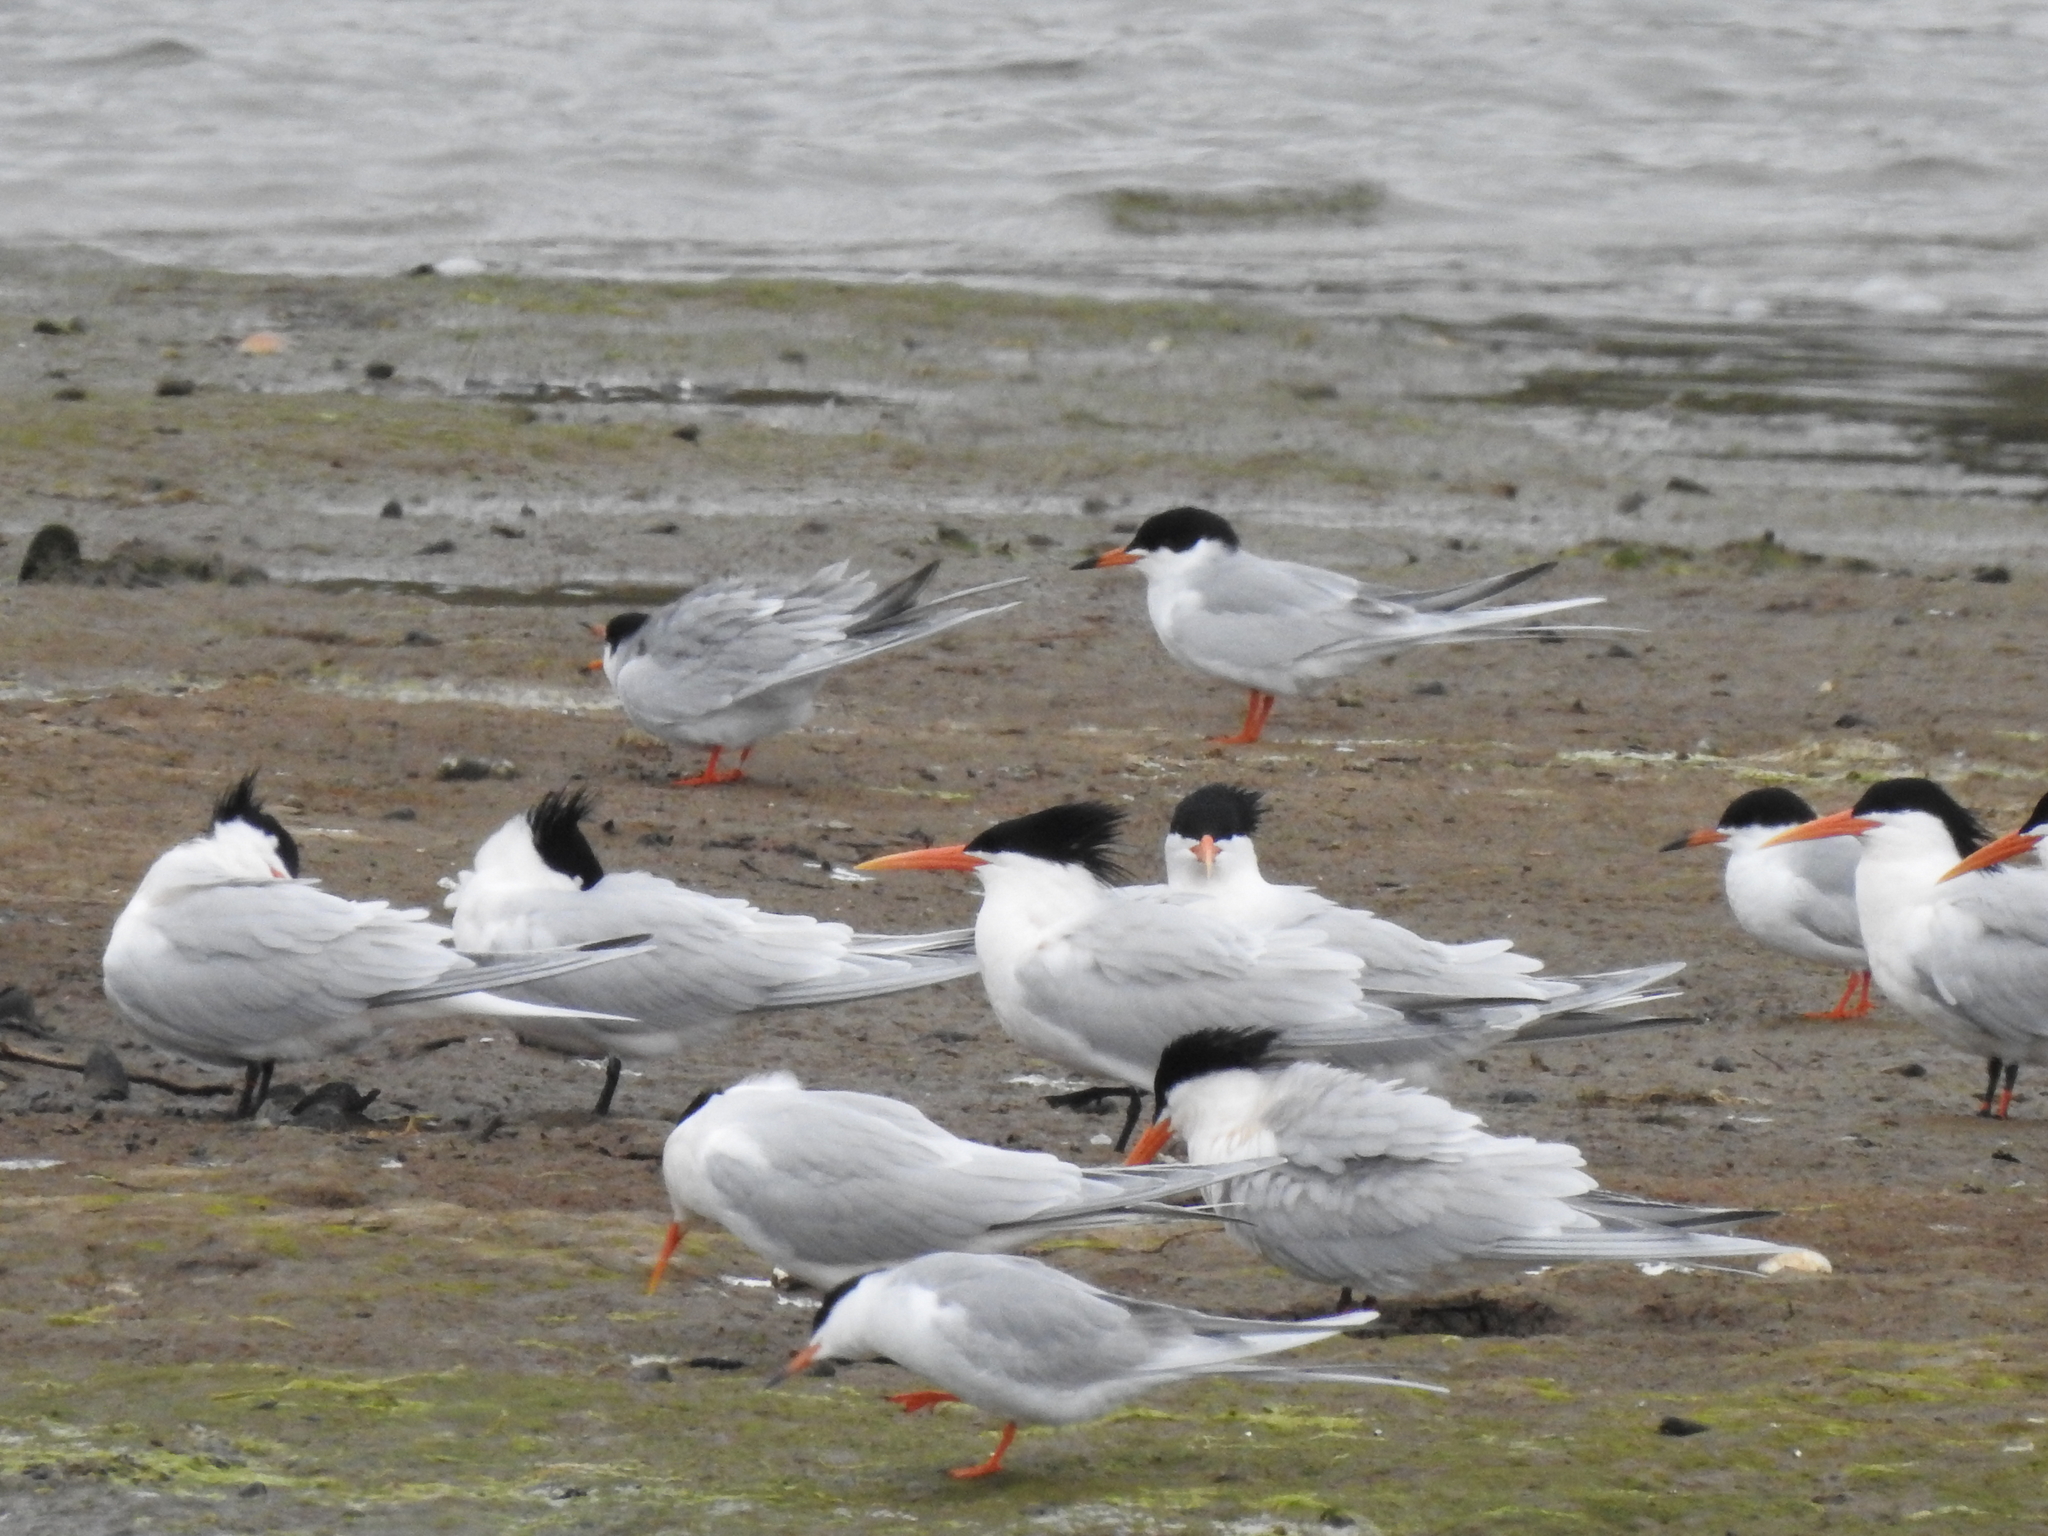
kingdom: Animalia
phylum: Chordata
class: Aves
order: Charadriiformes
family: Laridae
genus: Thalasseus
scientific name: Thalasseus elegans
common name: Elegant tern
